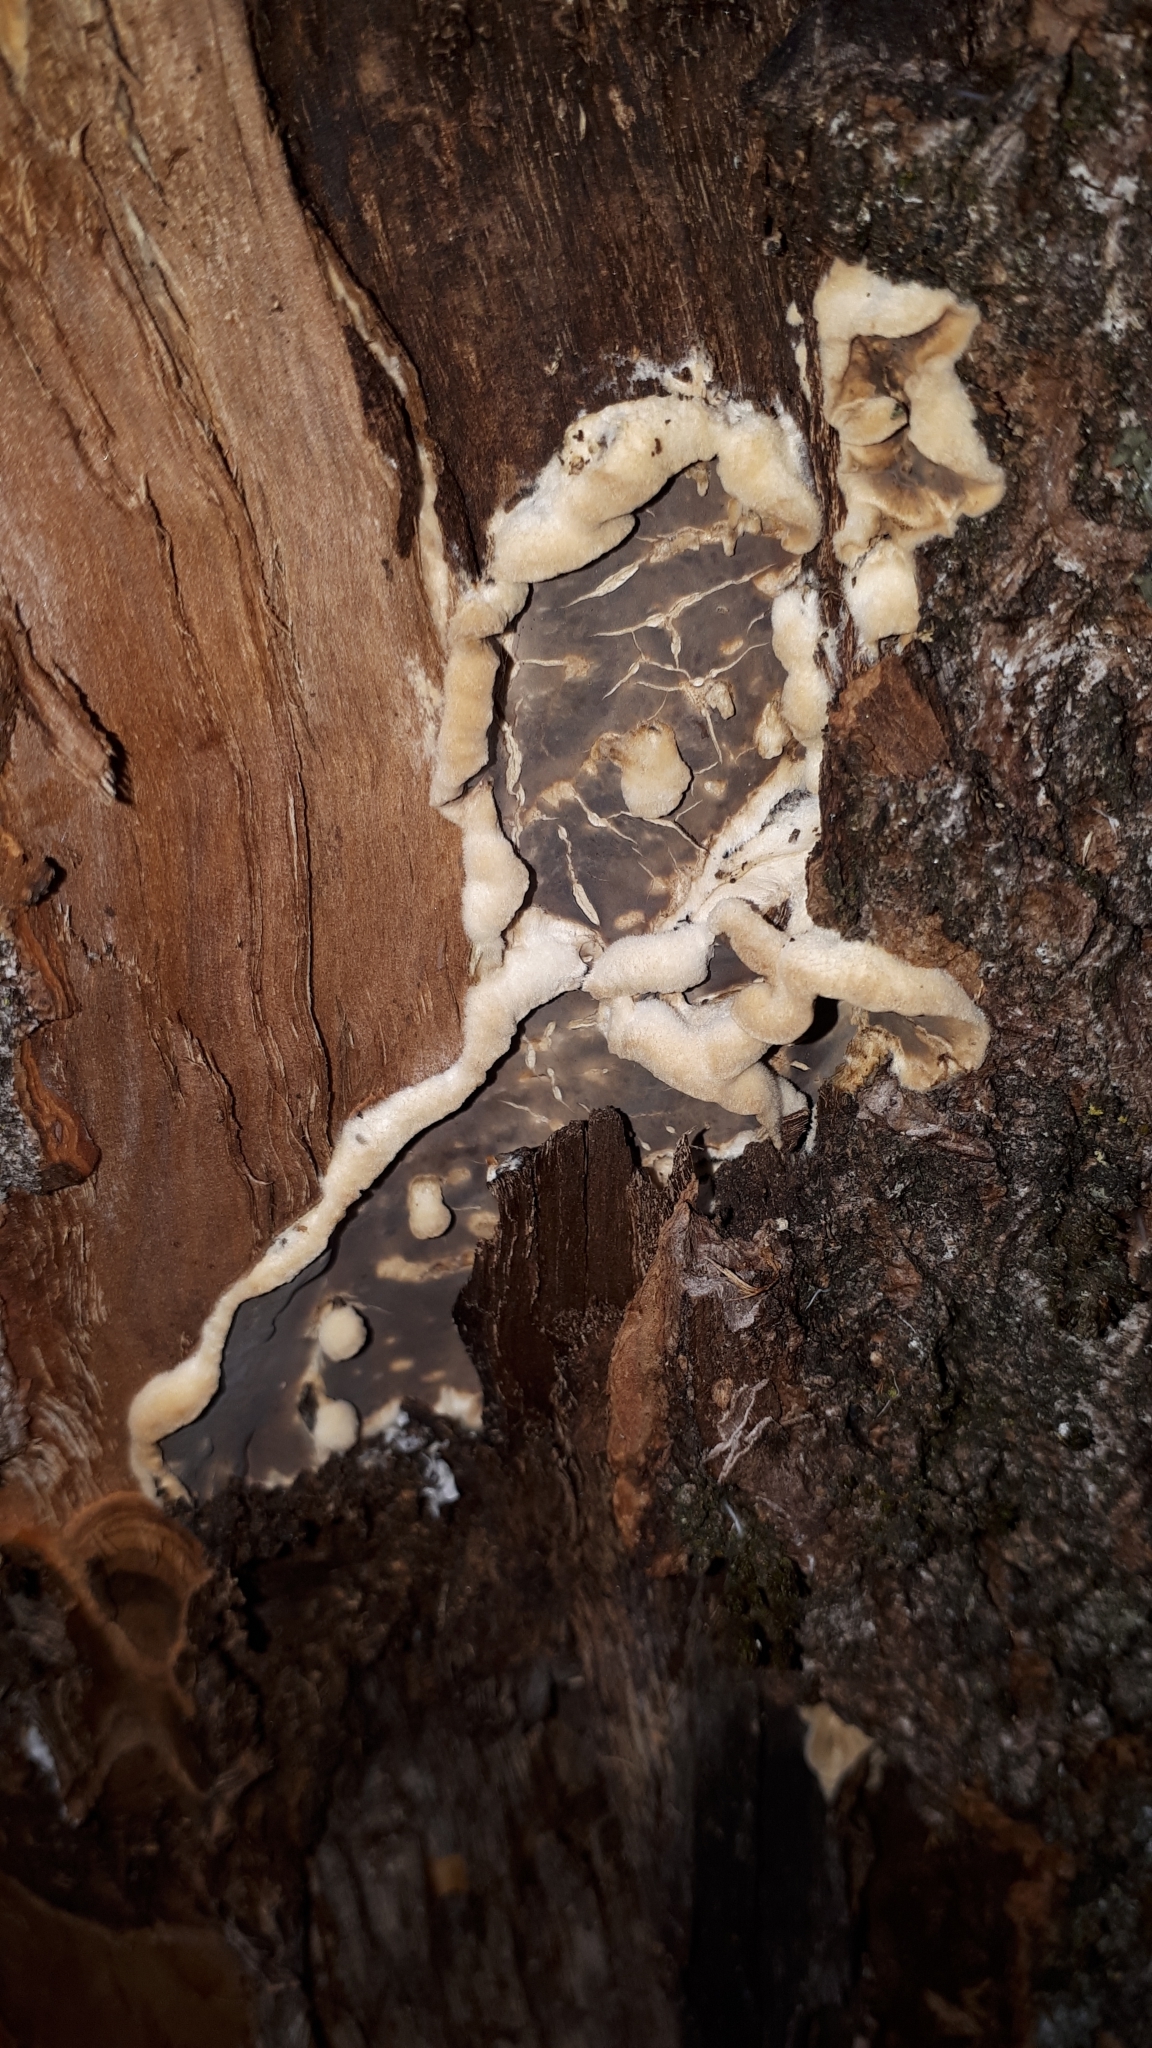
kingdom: Fungi
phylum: Basidiomycota
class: Agaricomycetes
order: Agaricales
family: Cyphellaceae
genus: Chondrostereum
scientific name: Chondrostereum purpureum
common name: Silver leaf disease
